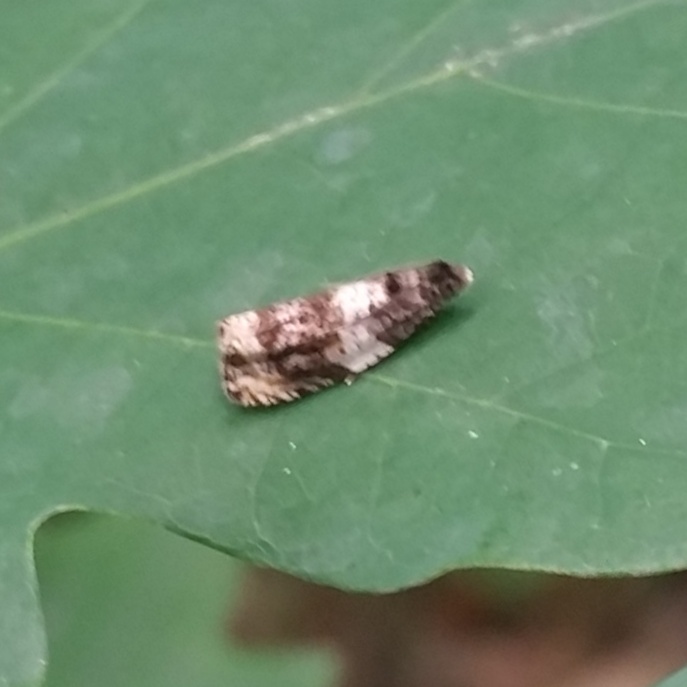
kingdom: Animalia
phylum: Arthropoda
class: Insecta
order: Lepidoptera
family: Tortricidae
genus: Olethreutes
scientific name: Olethreutes fasciatana
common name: Banded olethreutes moth
